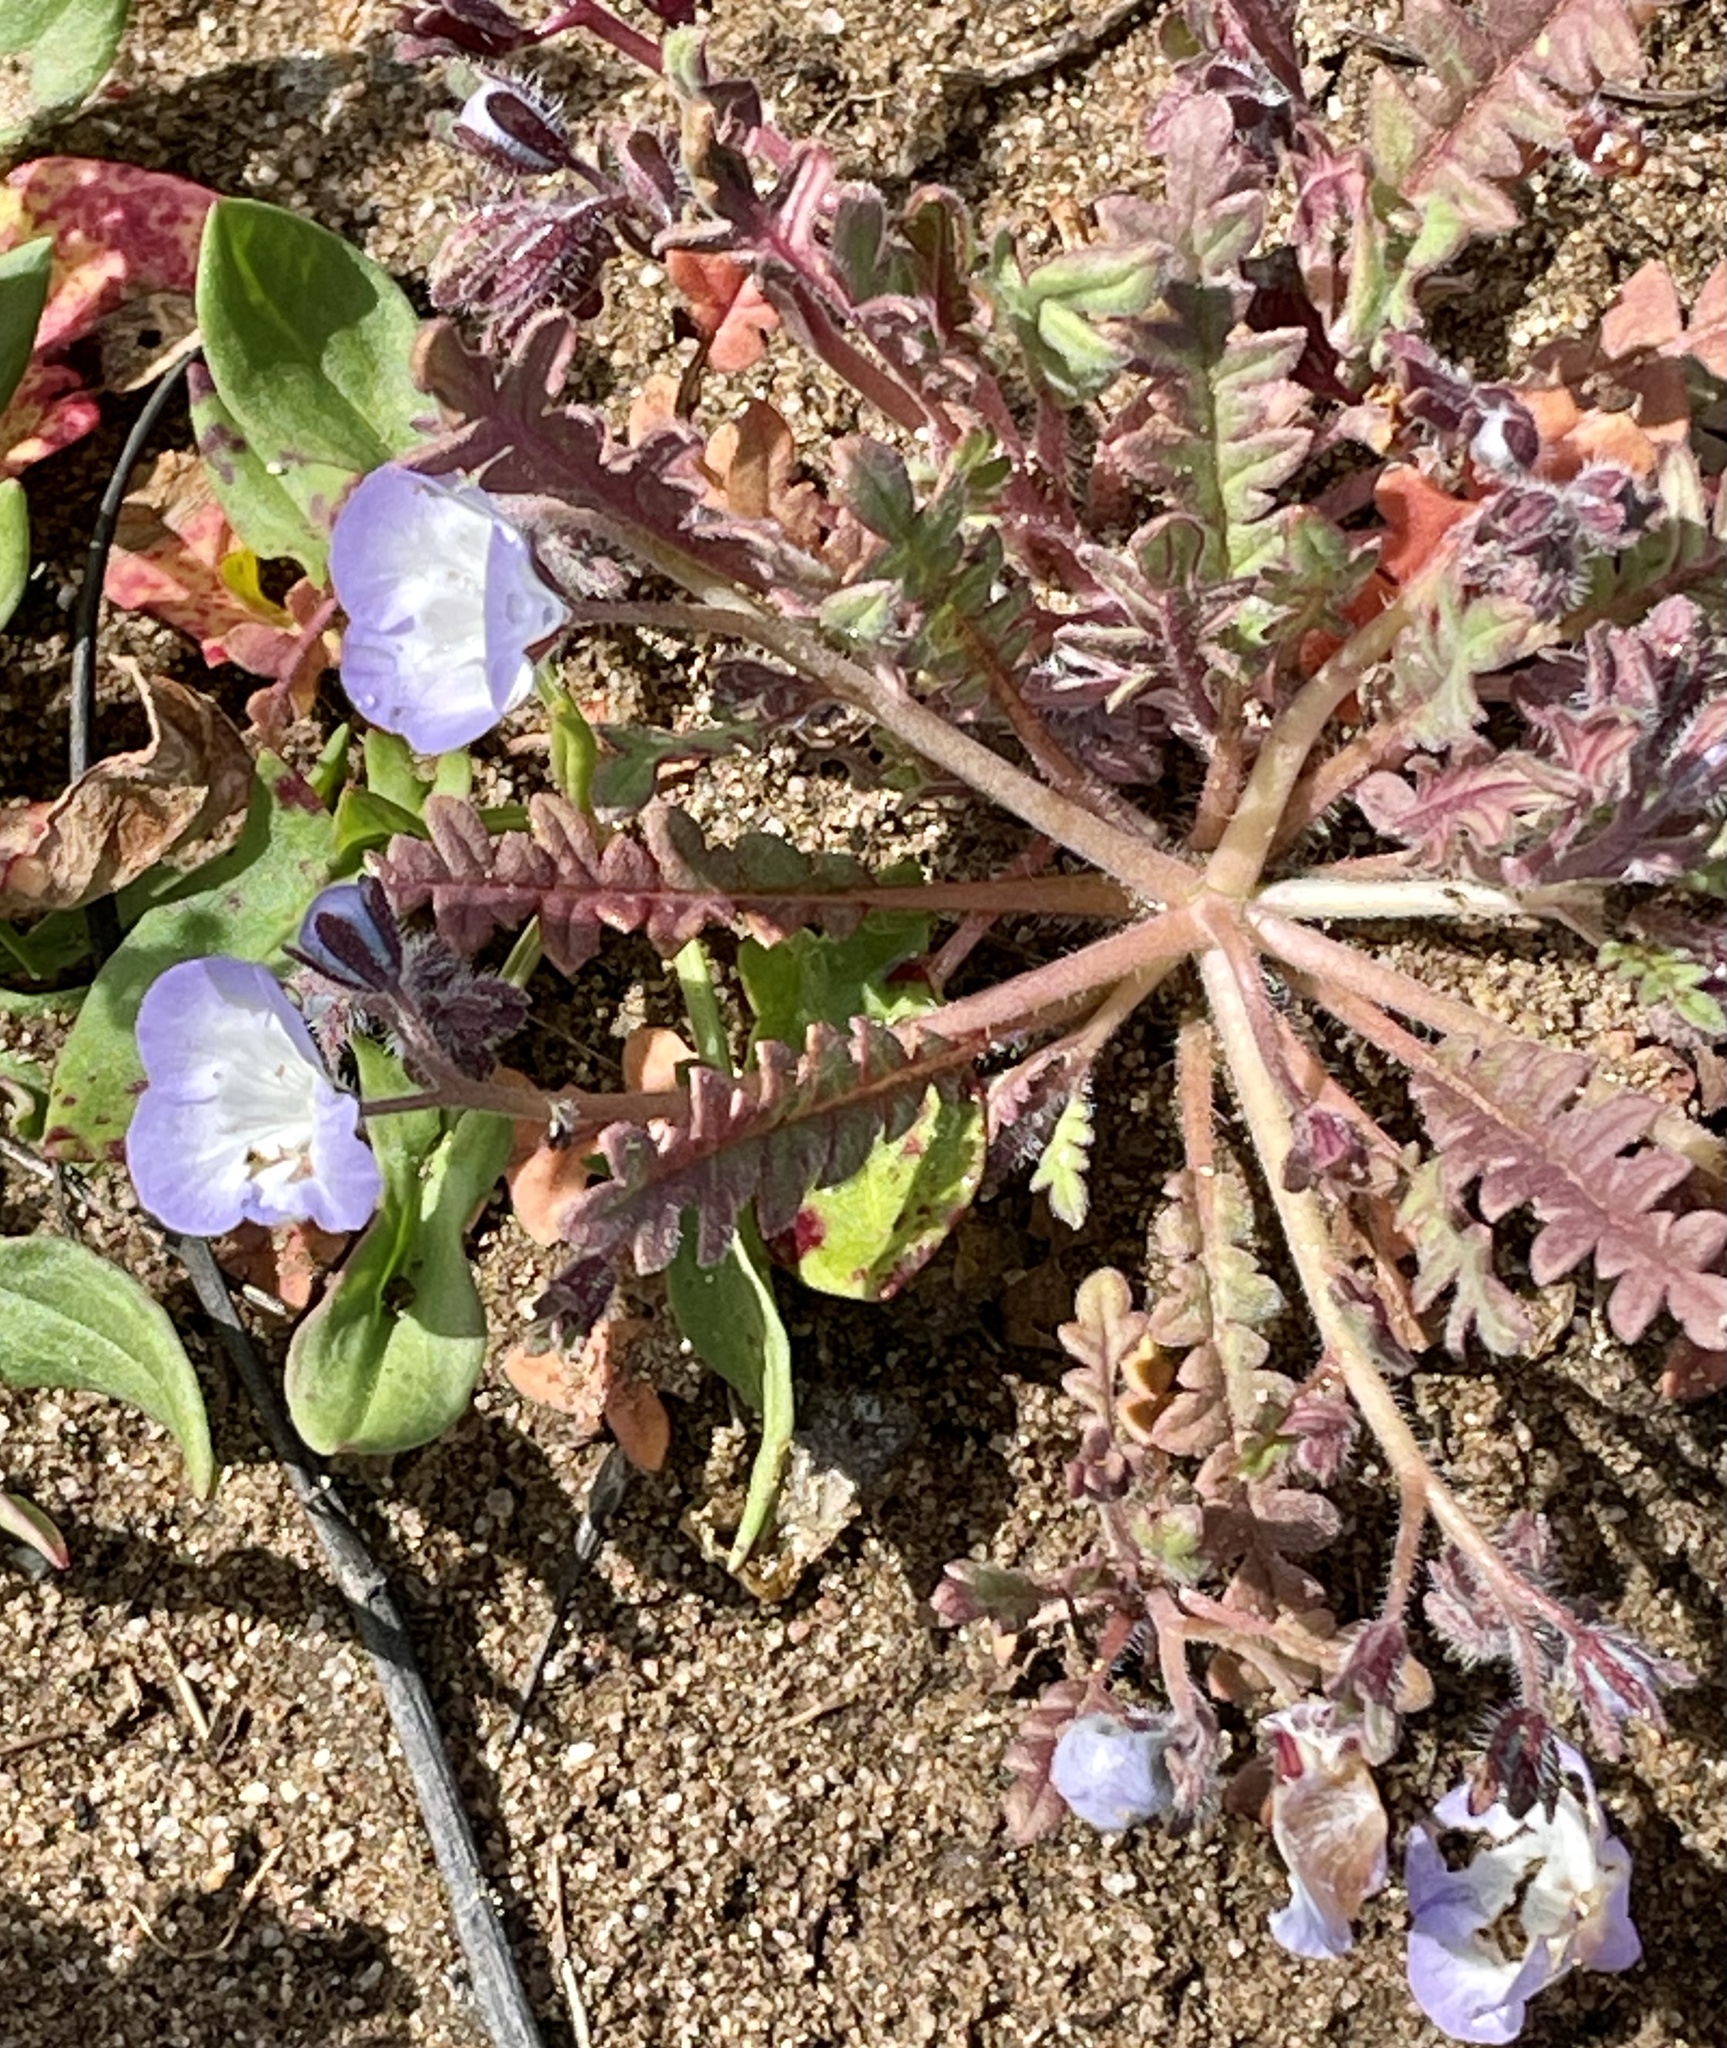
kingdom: Plantae
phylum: Tracheophyta
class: Magnoliopsida
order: Boraginales
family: Hydrophyllaceae
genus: Phacelia
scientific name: Phacelia douglasii
